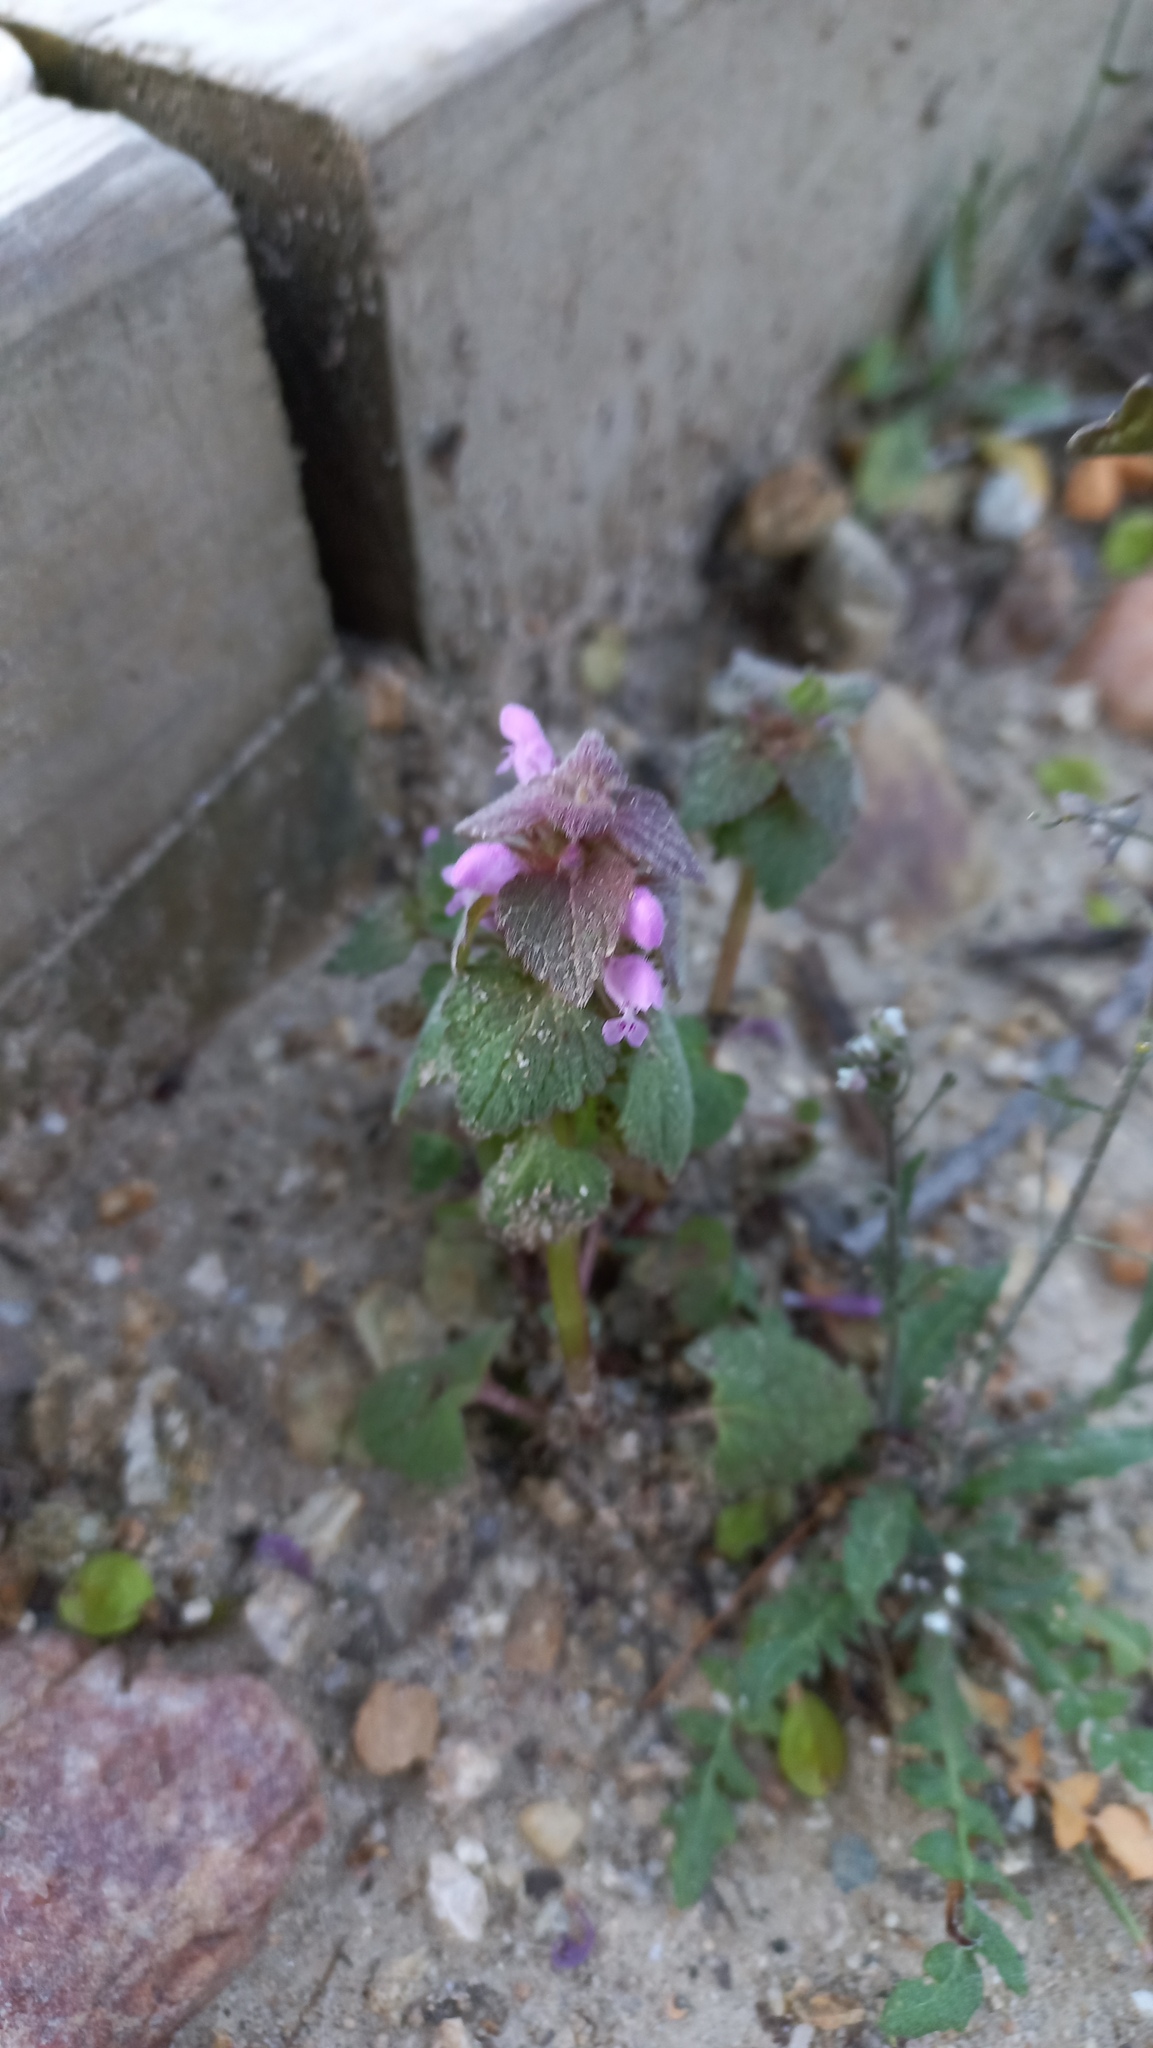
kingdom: Plantae
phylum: Tracheophyta
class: Magnoliopsida
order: Lamiales
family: Lamiaceae
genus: Lamium
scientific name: Lamium purpureum
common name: Red dead-nettle
